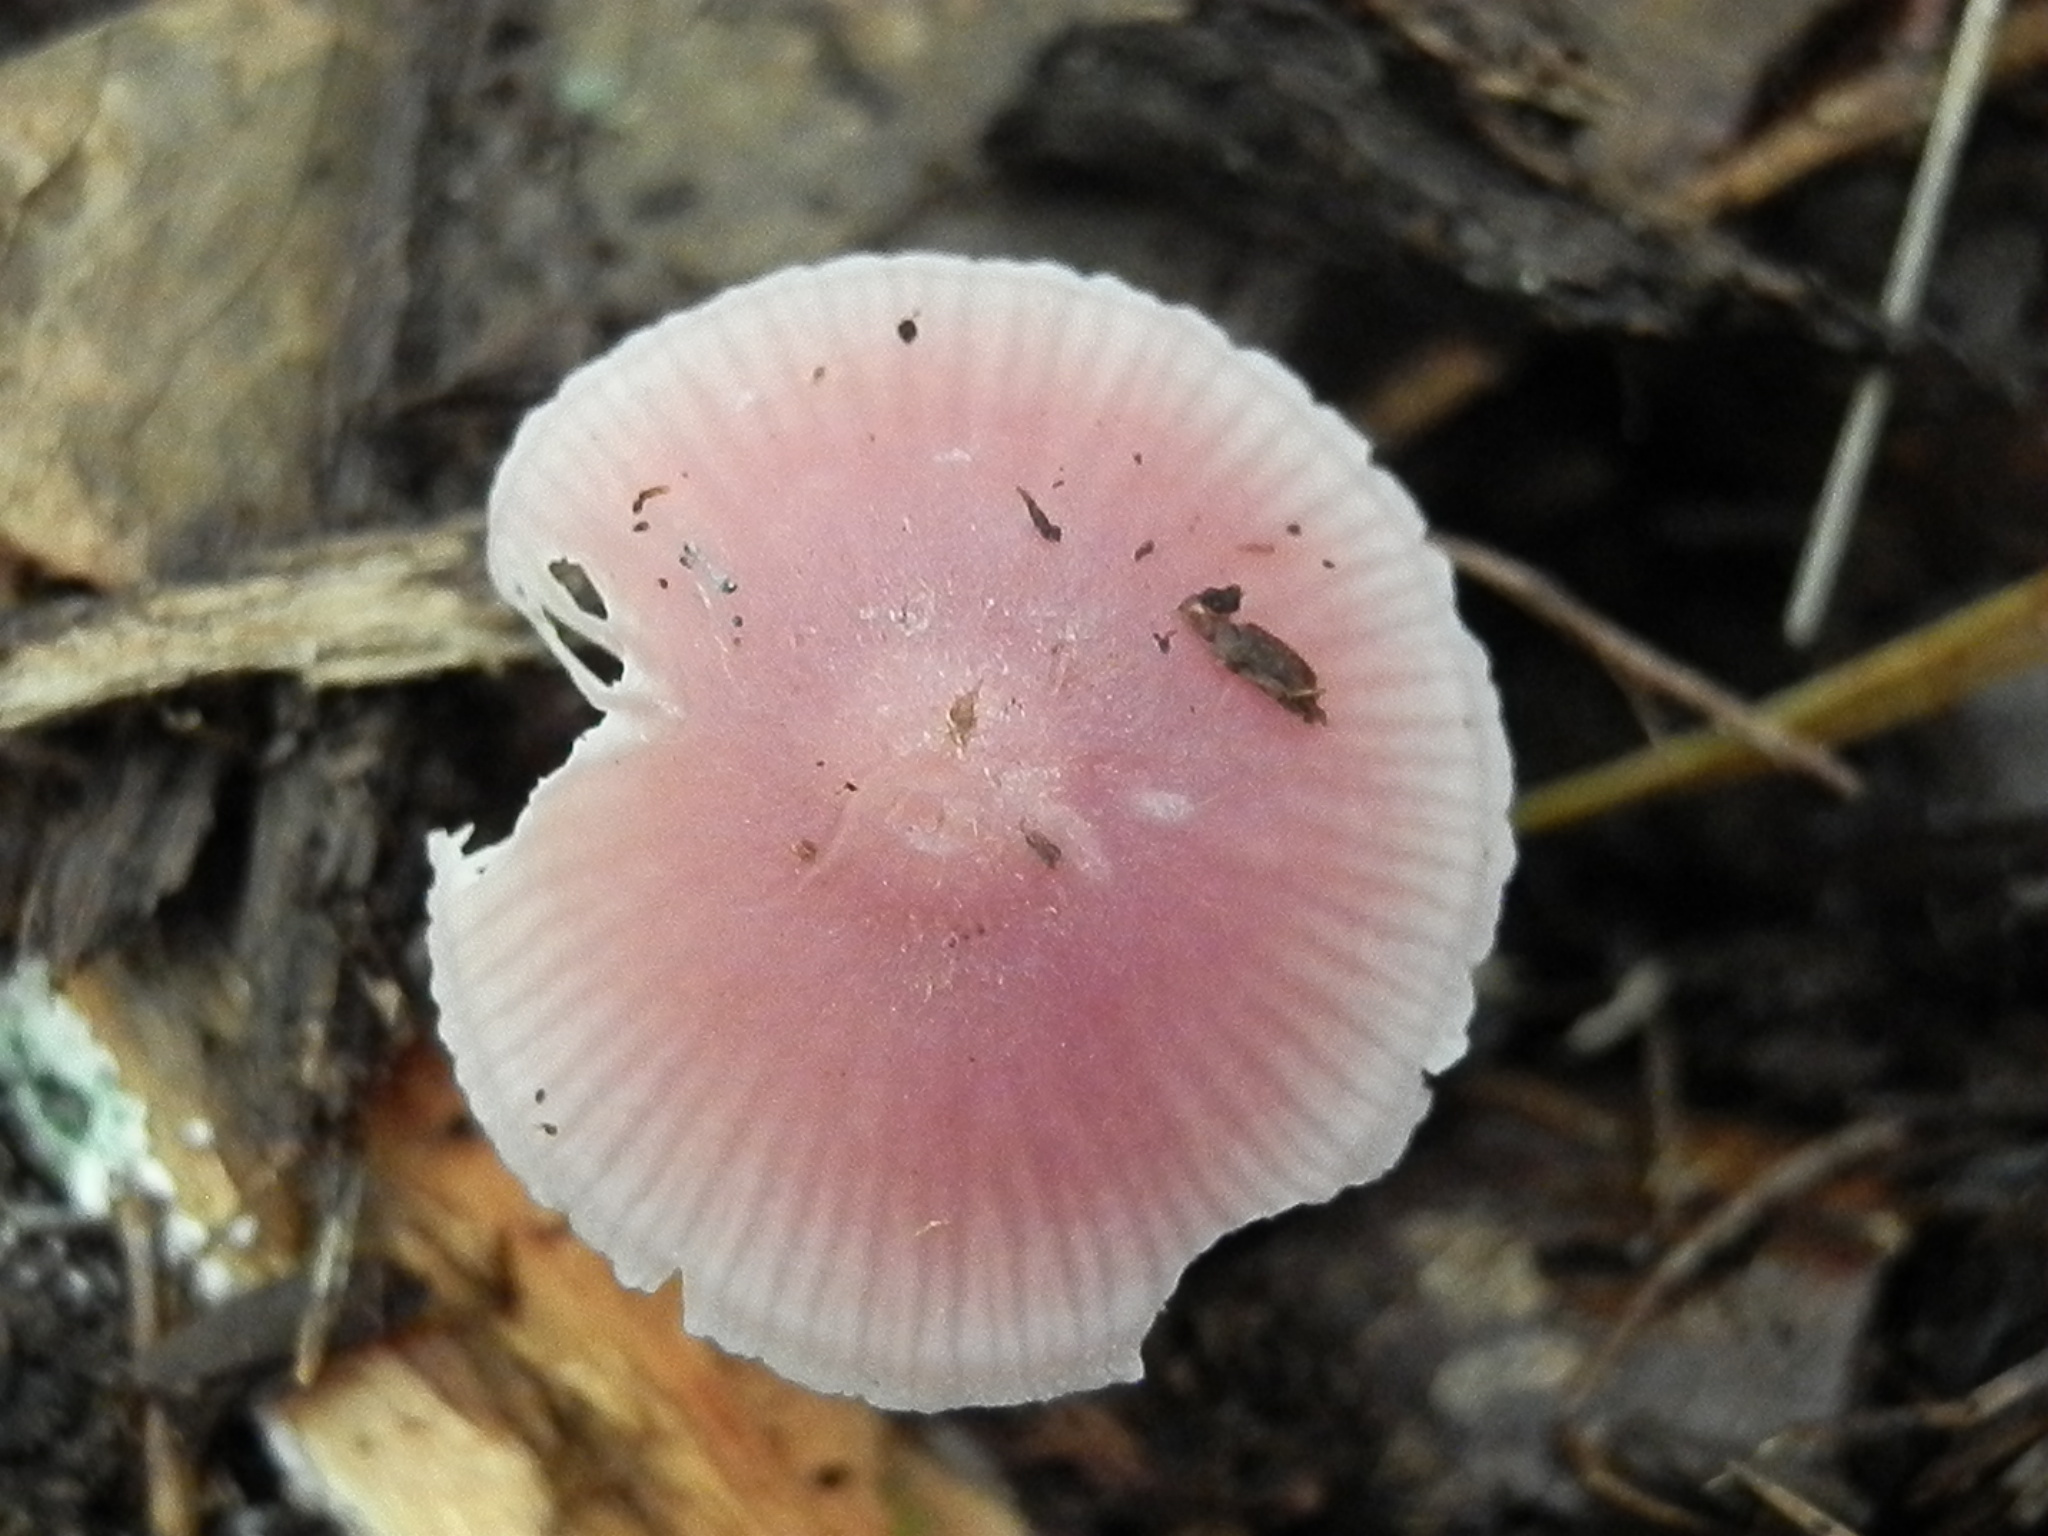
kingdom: Fungi
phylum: Basidiomycota
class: Agaricomycetes
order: Agaricales
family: Mycenaceae
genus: Mycena
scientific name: Mycena haematopus
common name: Burgundydrop bonnet
